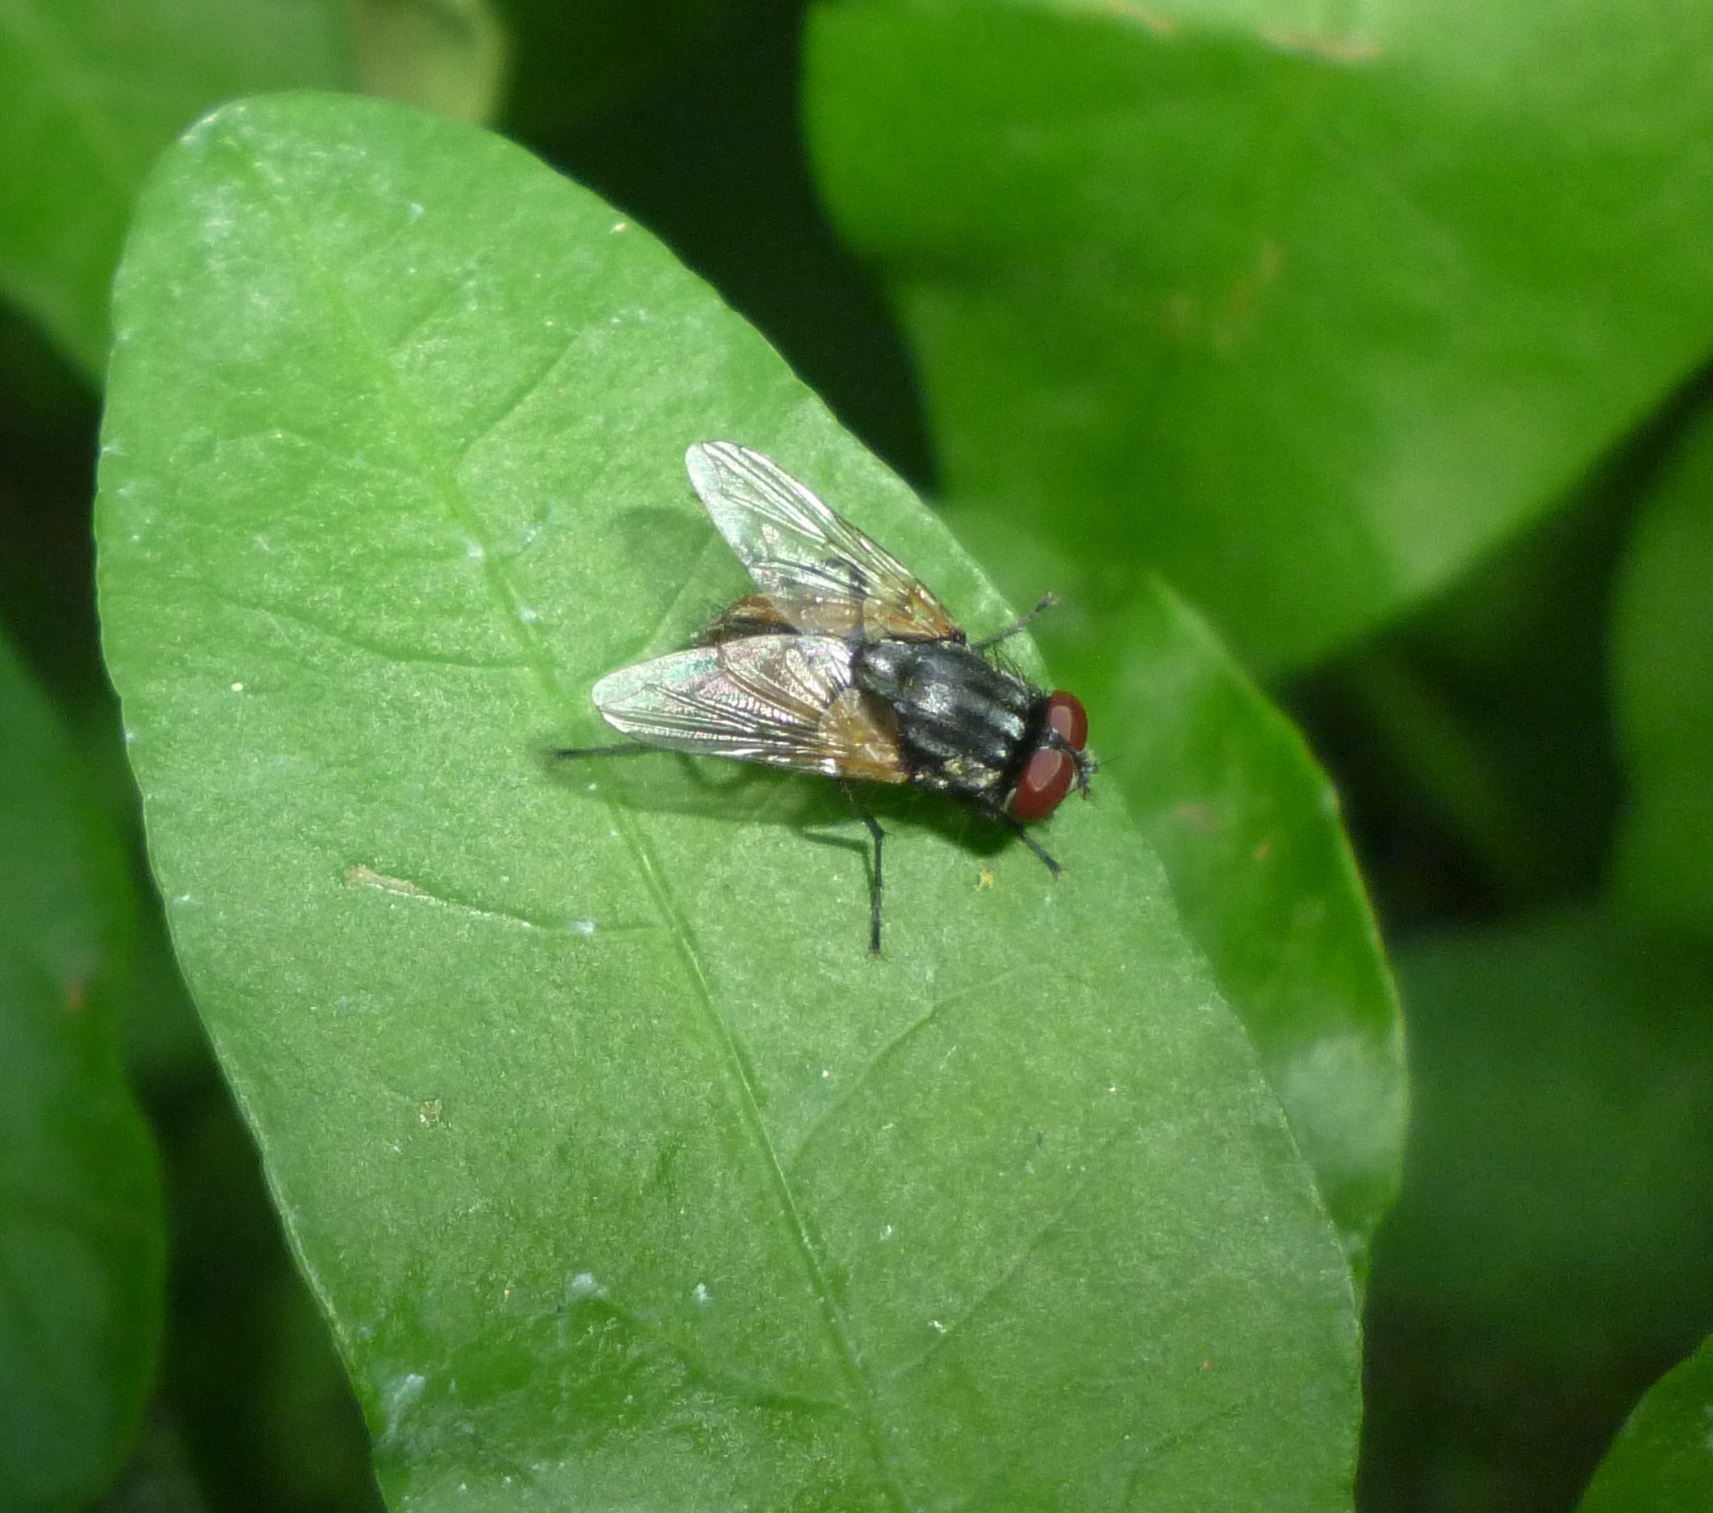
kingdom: Animalia
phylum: Arthropoda
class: Insecta
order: Diptera
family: Muscidae
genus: Musca
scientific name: Musca domestica
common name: House fly
